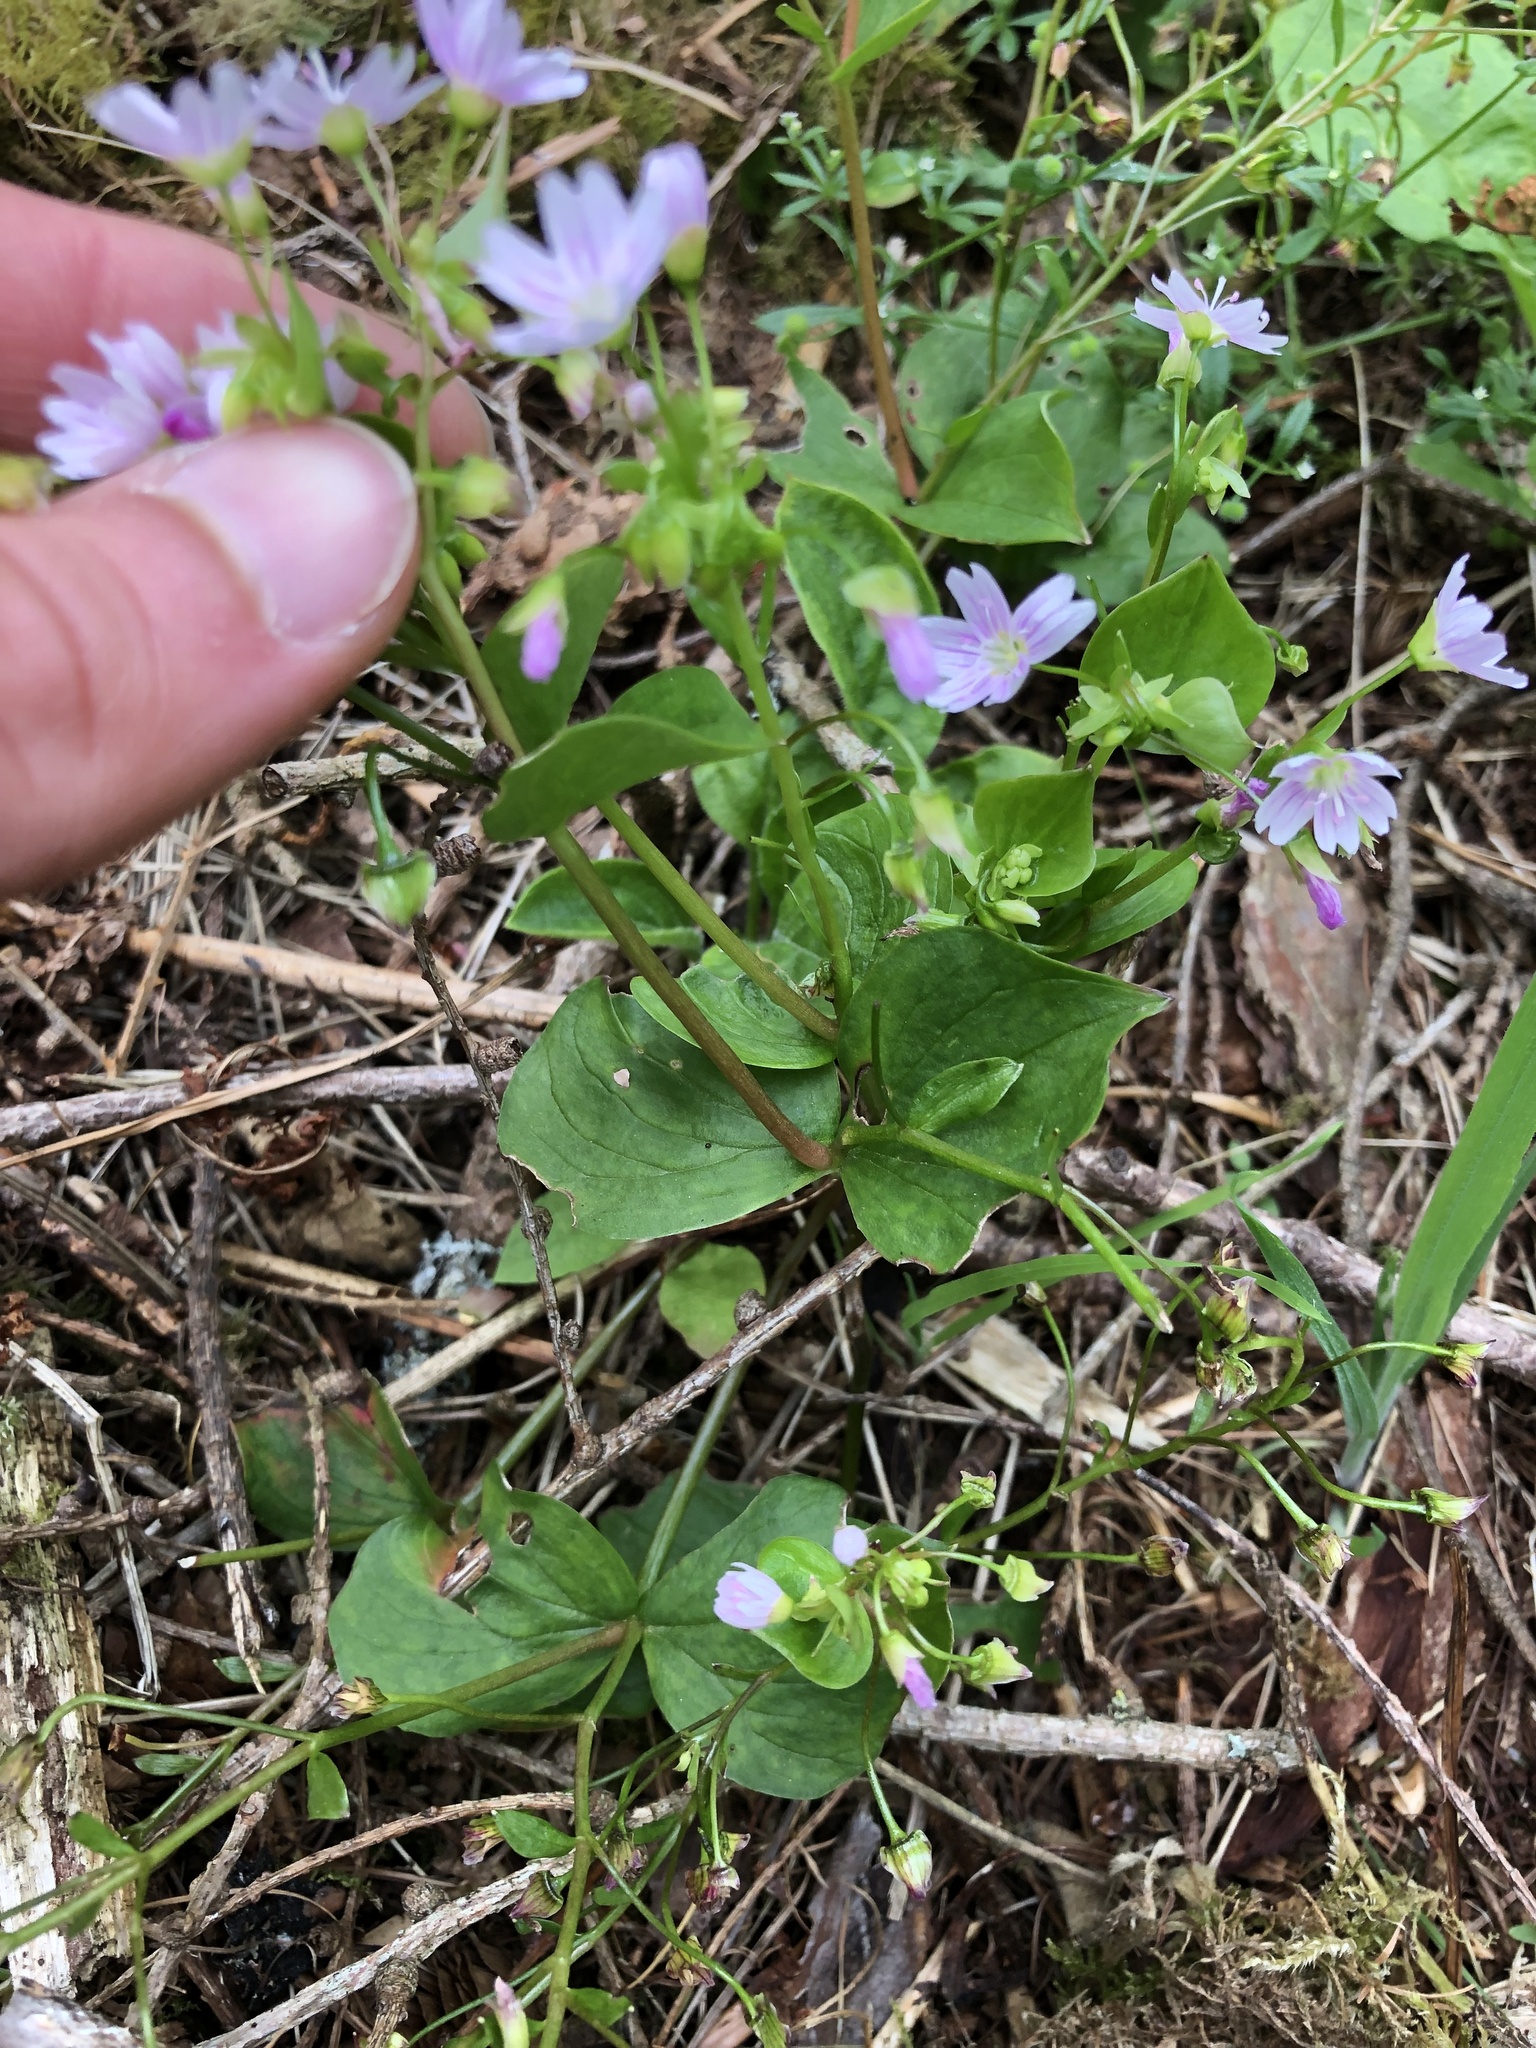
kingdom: Plantae
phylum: Tracheophyta
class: Magnoliopsida
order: Caryophyllales
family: Montiaceae
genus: Claytonia
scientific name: Claytonia sibirica
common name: Pink purslane
